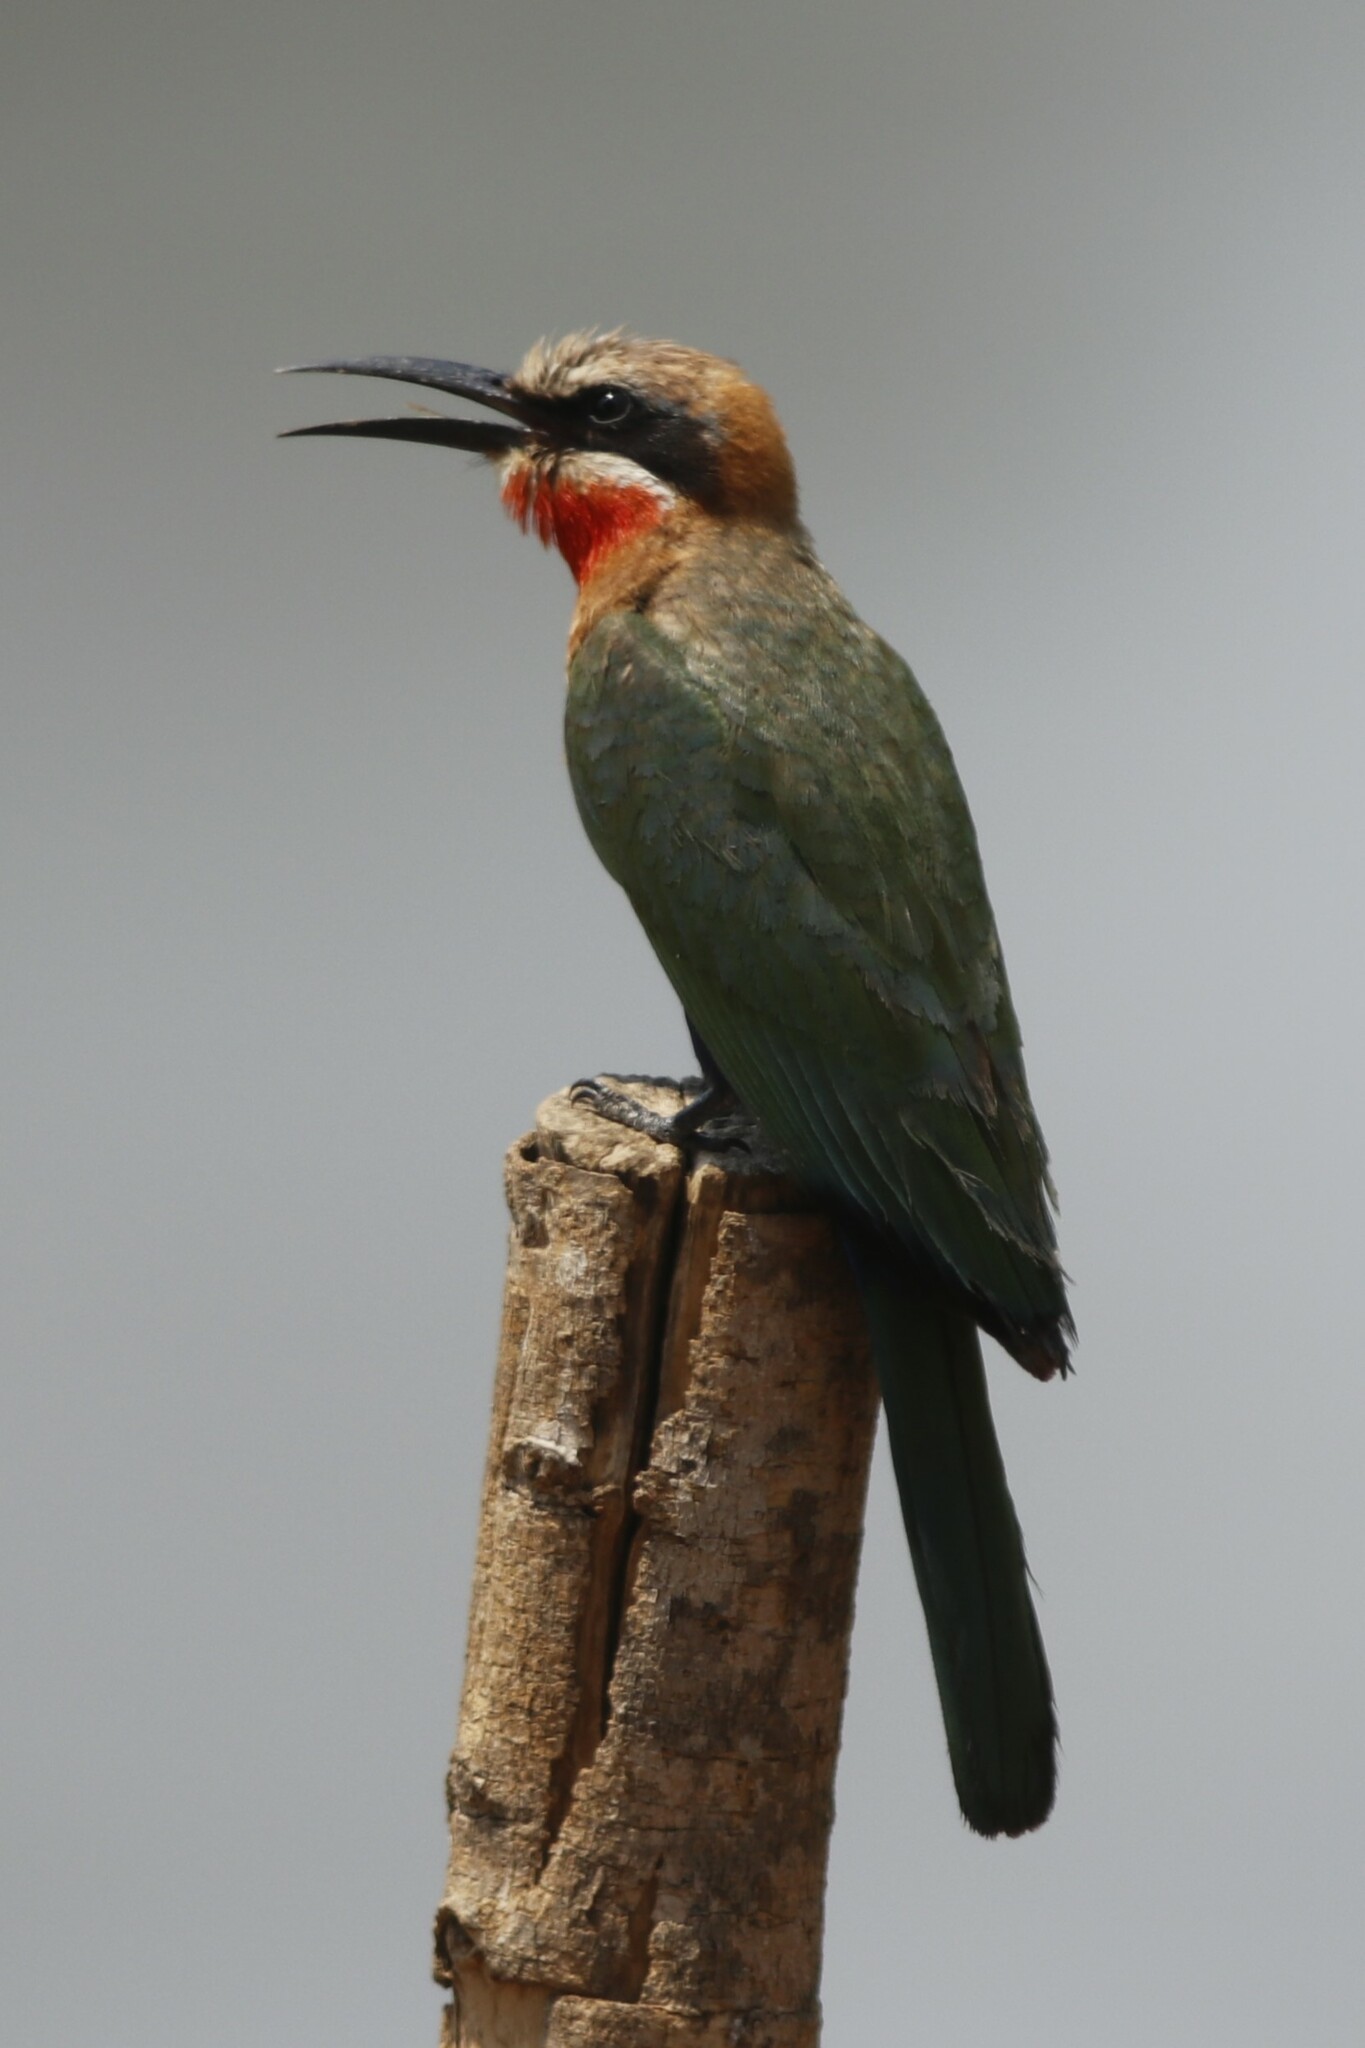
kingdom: Animalia
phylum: Chordata
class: Aves
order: Coraciiformes
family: Meropidae
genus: Merops
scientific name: Merops bullockoides
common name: White-fronted bee-eater
